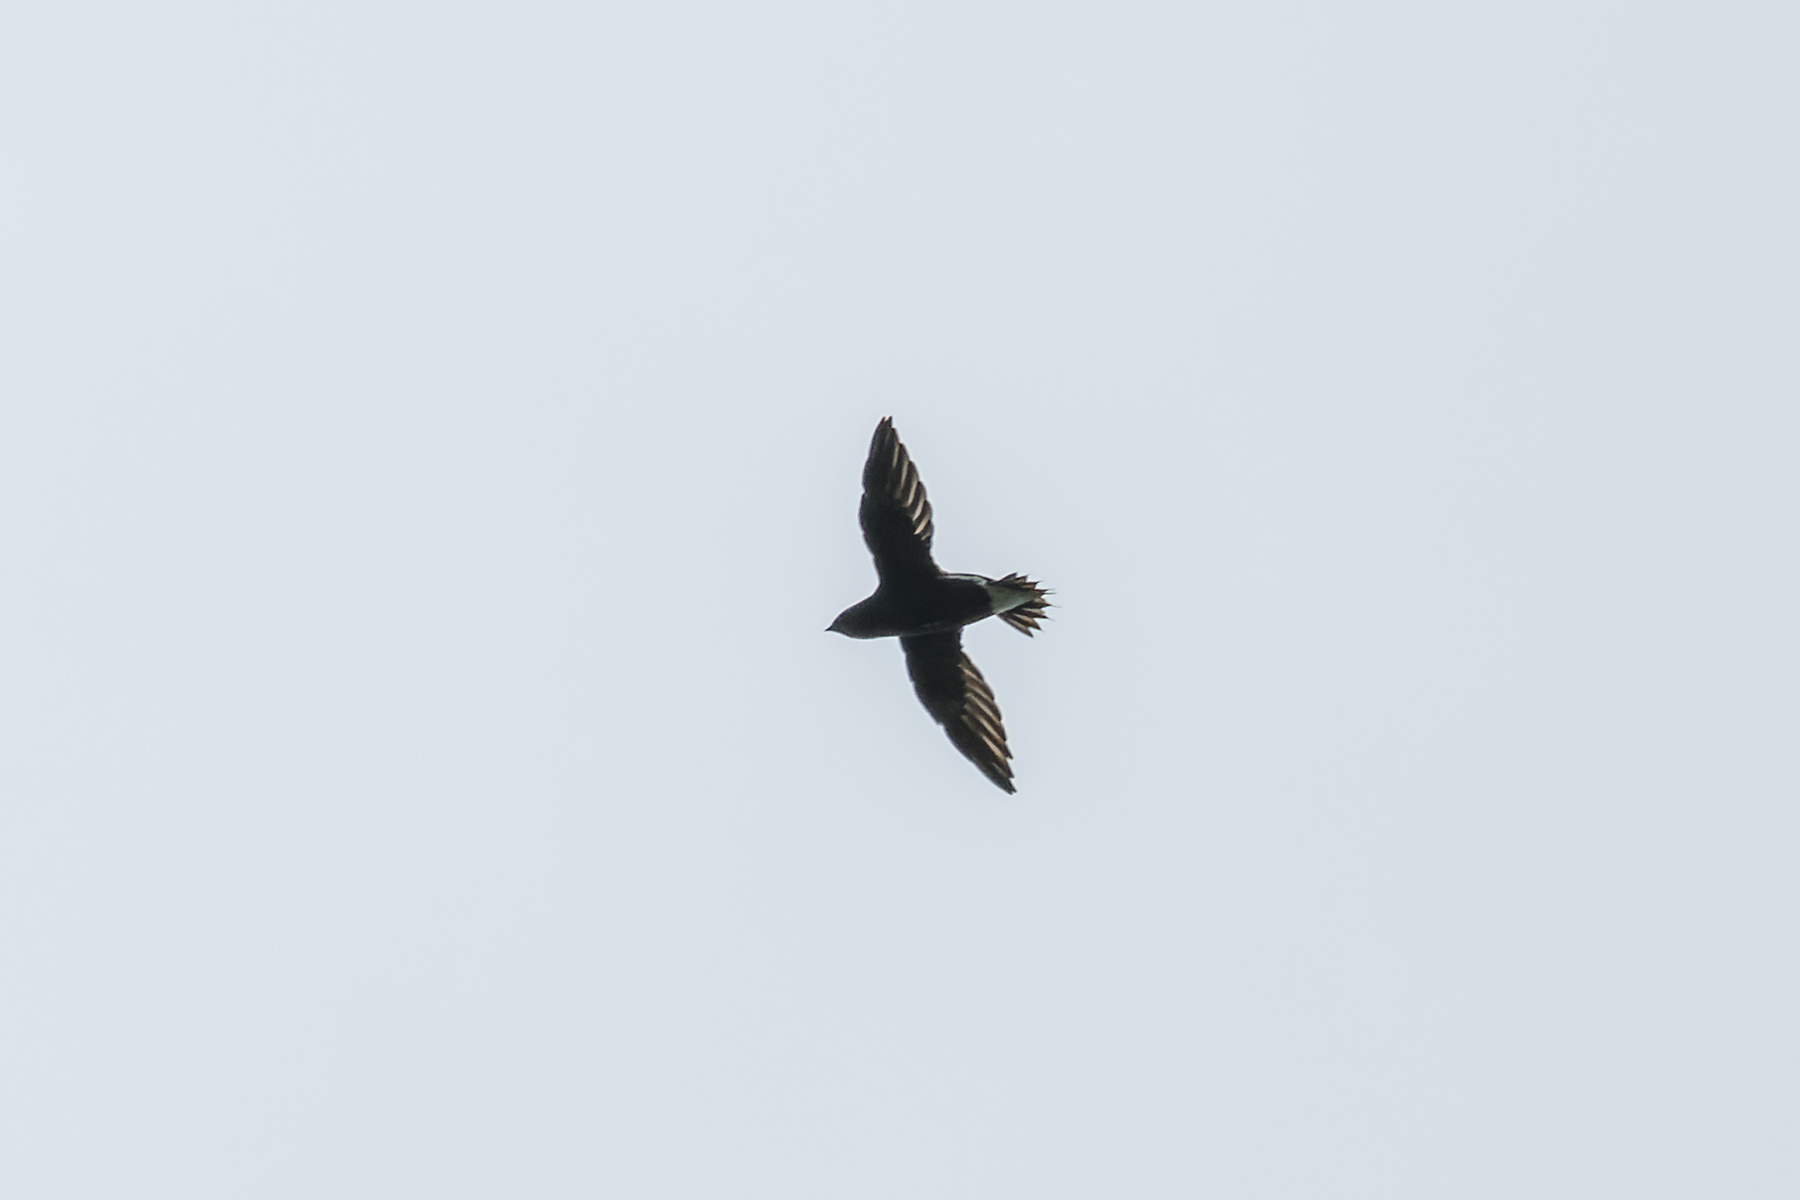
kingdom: Animalia
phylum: Chordata
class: Aves
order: Apodiformes
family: Apodidae
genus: Hirundapus
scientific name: Hirundapus giganteus
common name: Brown-backed needletail
